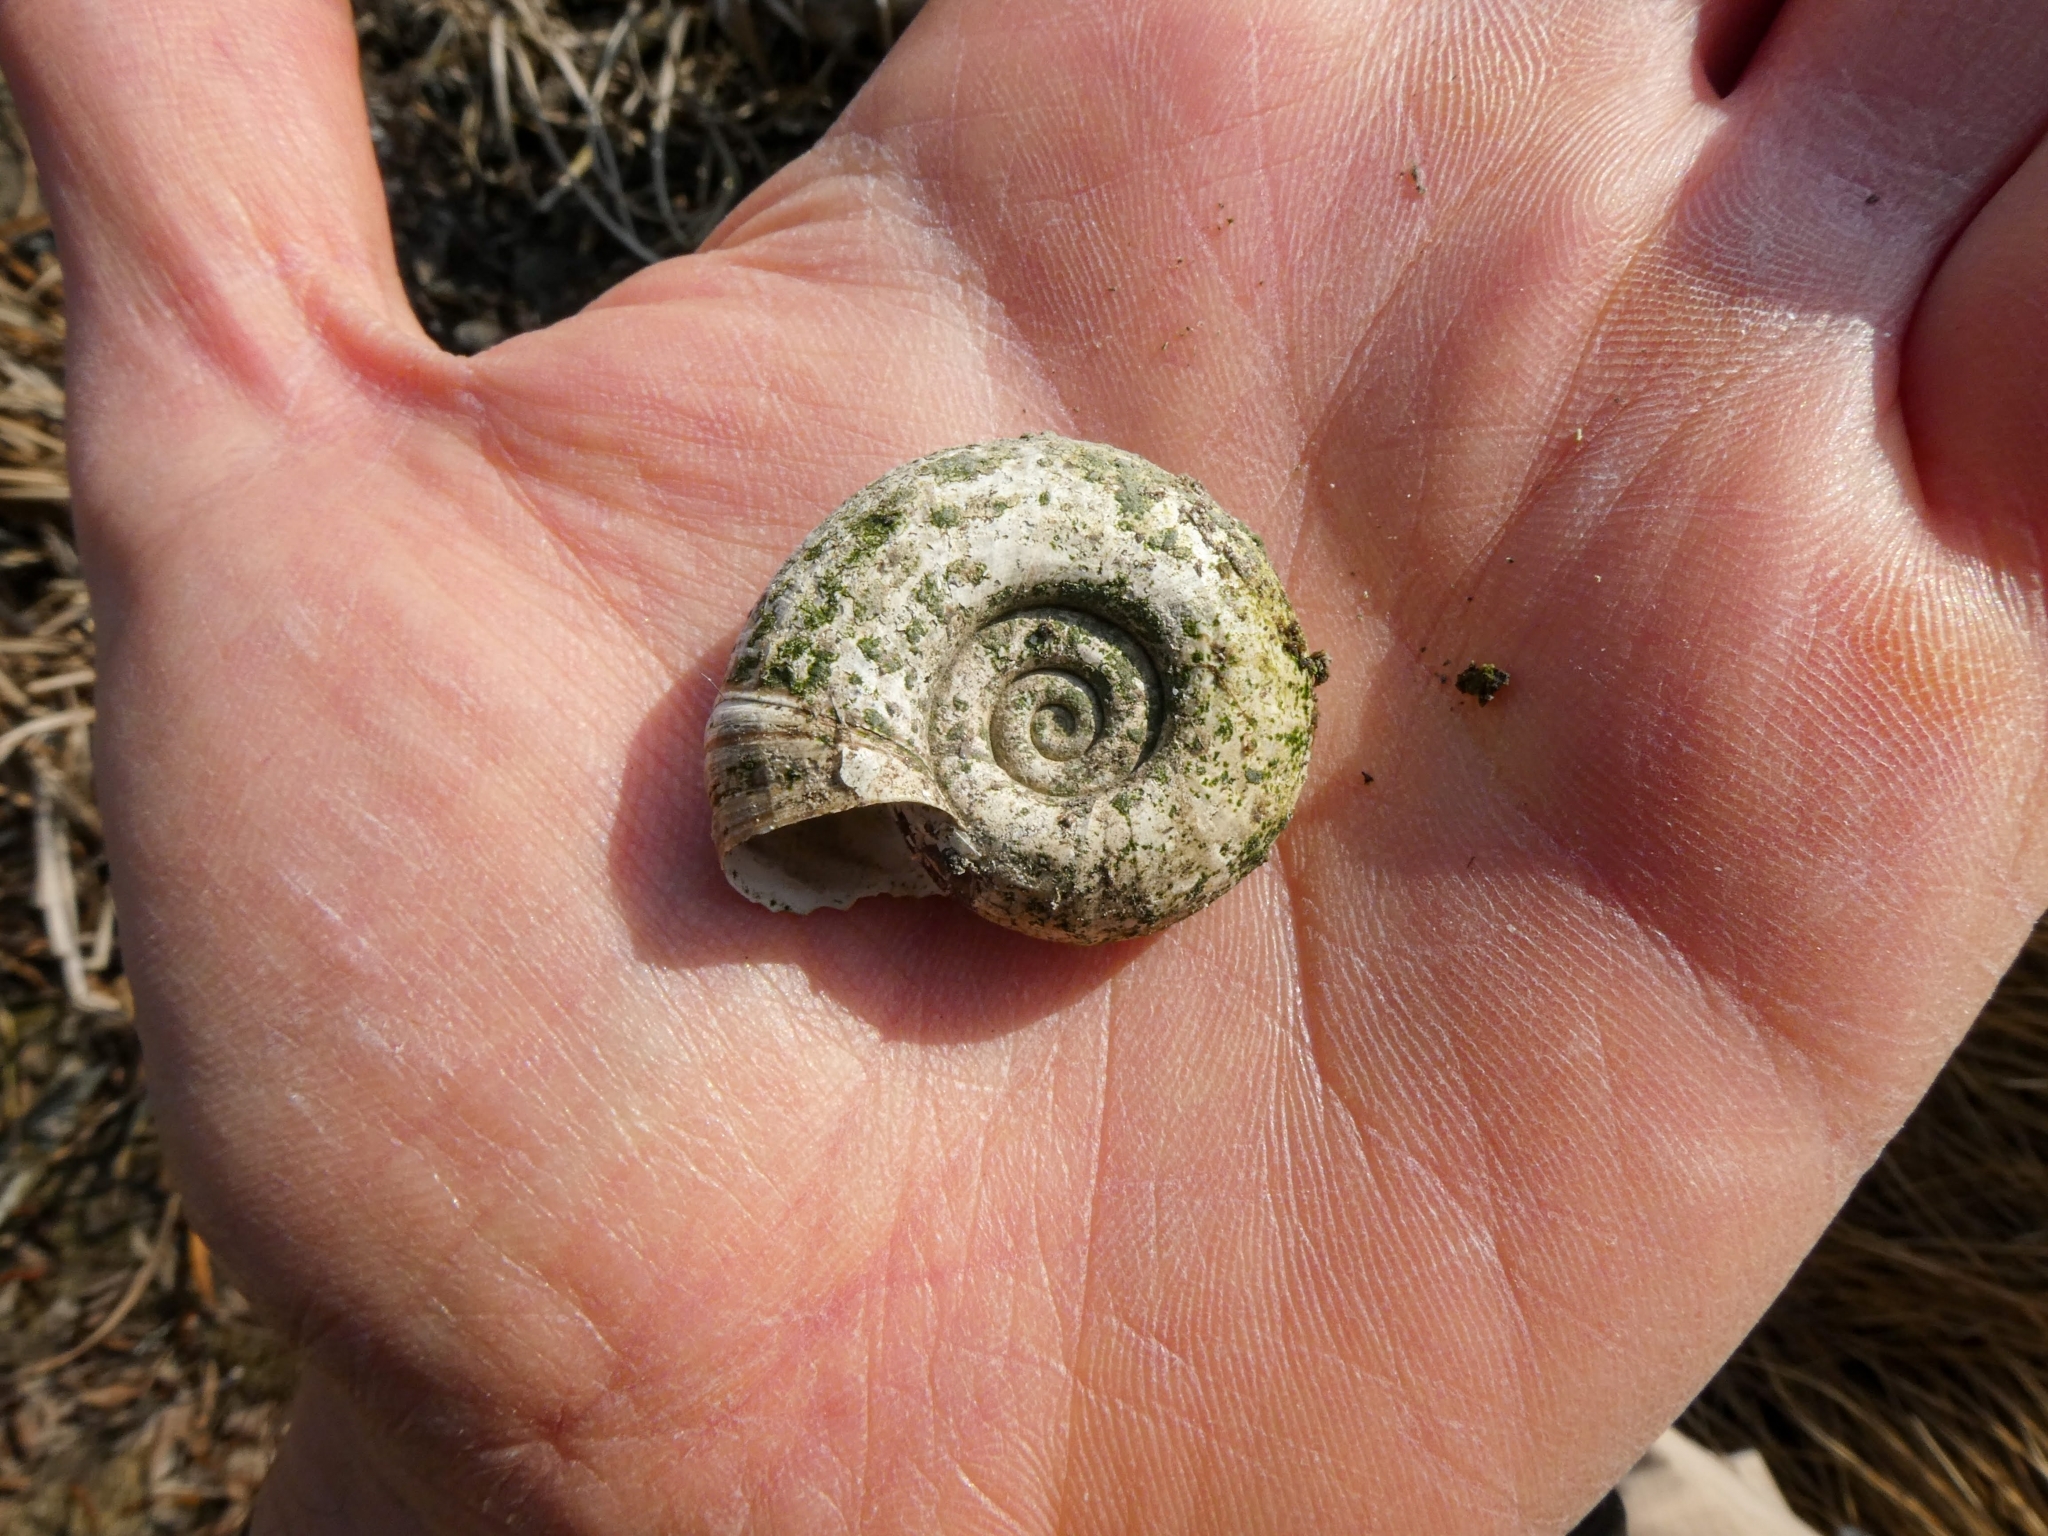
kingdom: Animalia
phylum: Mollusca
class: Gastropoda
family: Planorbidae
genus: Planorbarius
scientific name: Planorbarius corneus
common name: Great ramshorn
